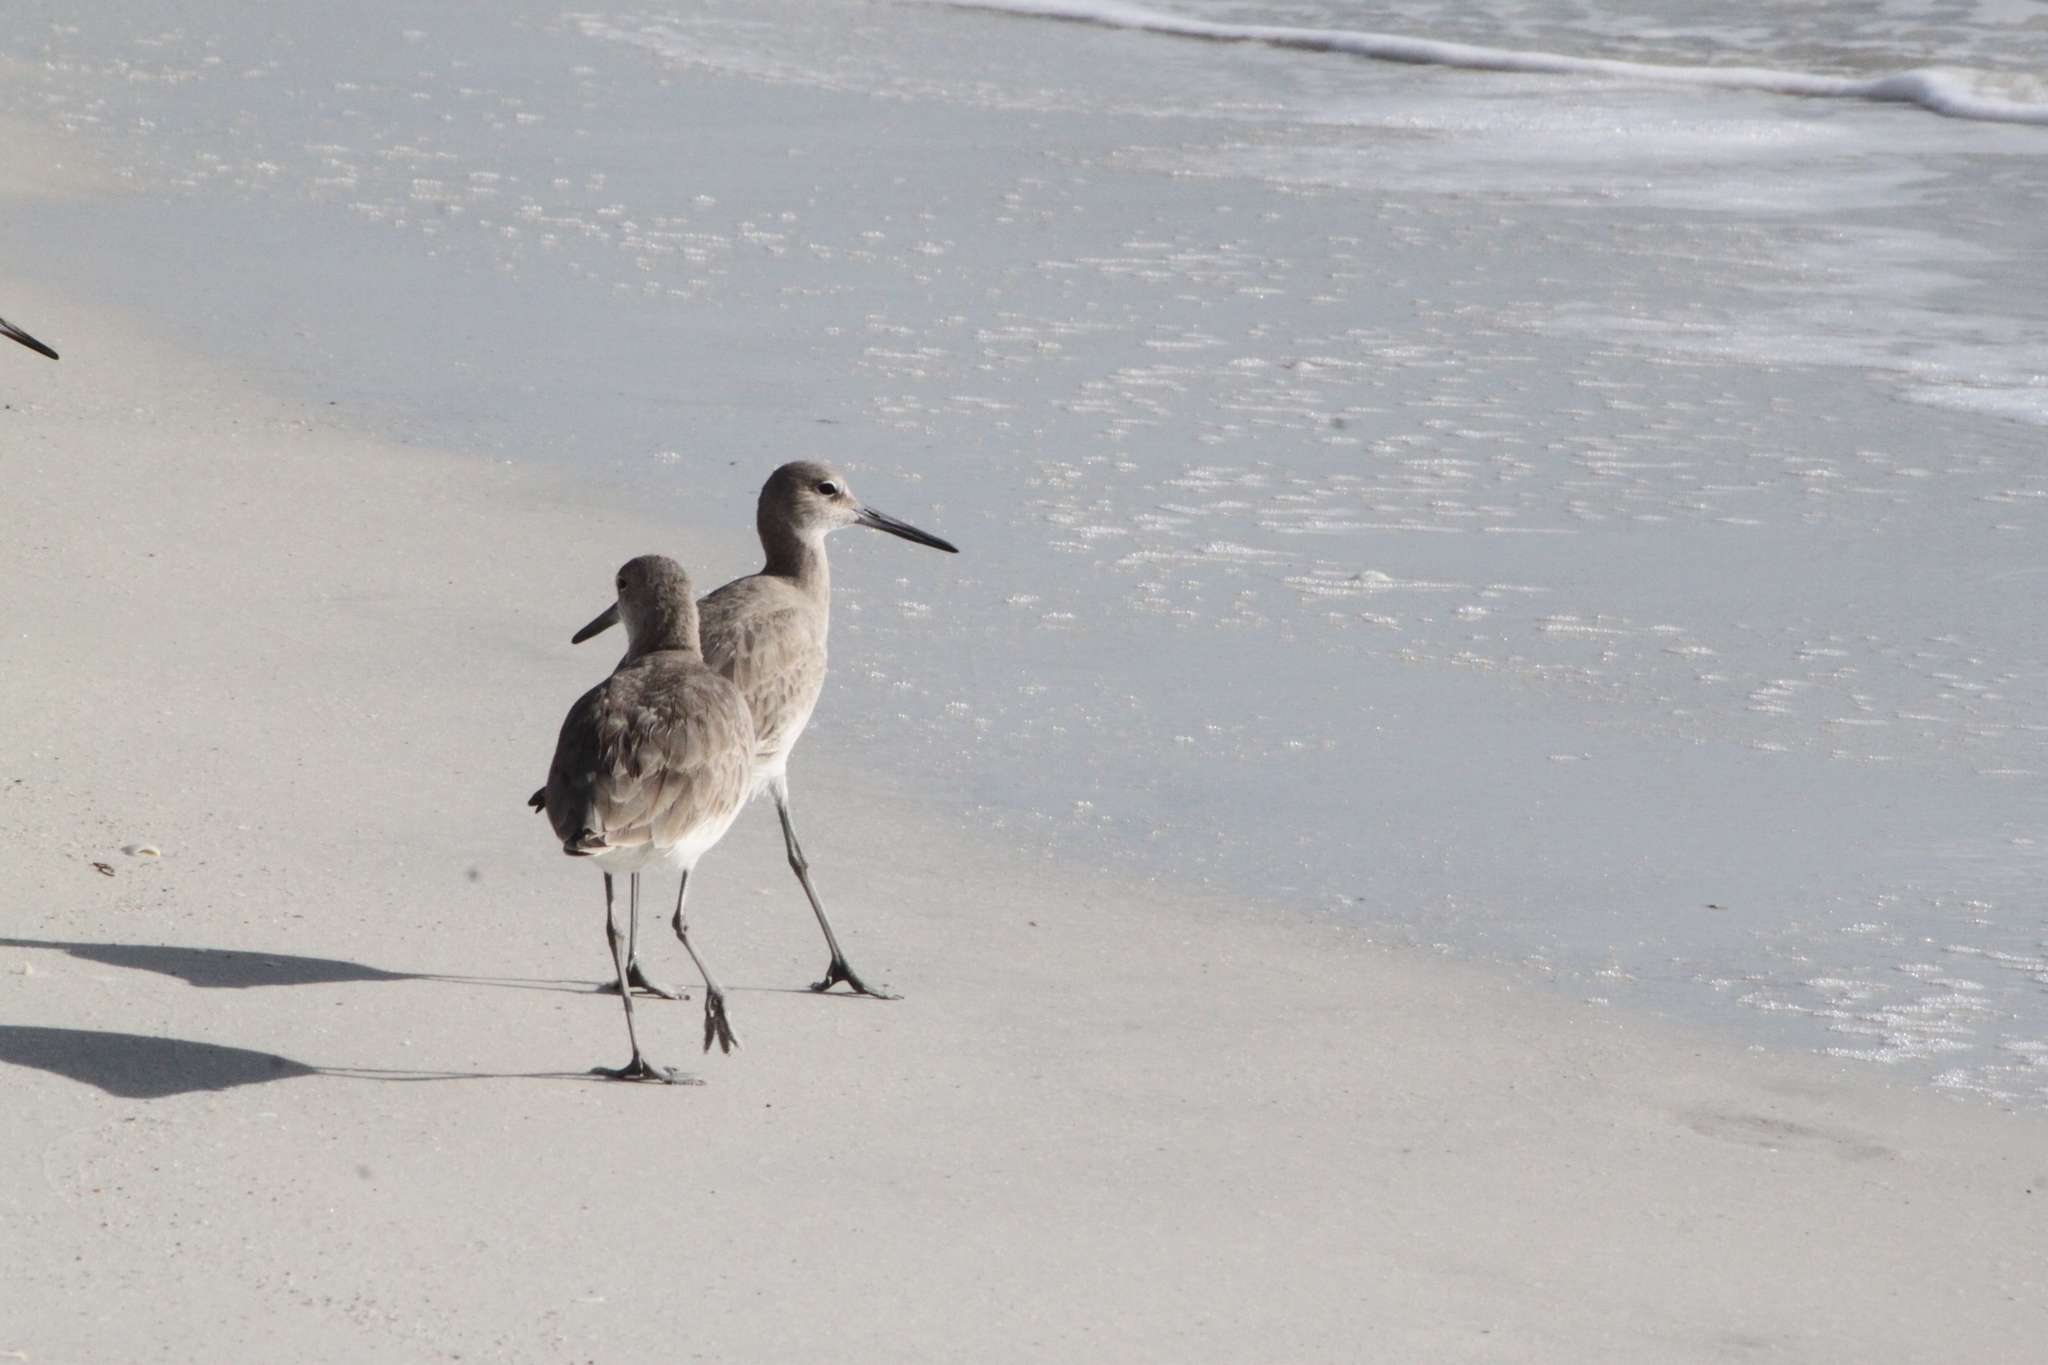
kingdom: Animalia
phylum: Chordata
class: Aves
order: Charadriiformes
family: Scolopacidae
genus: Tringa
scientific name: Tringa semipalmata
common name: Willet
